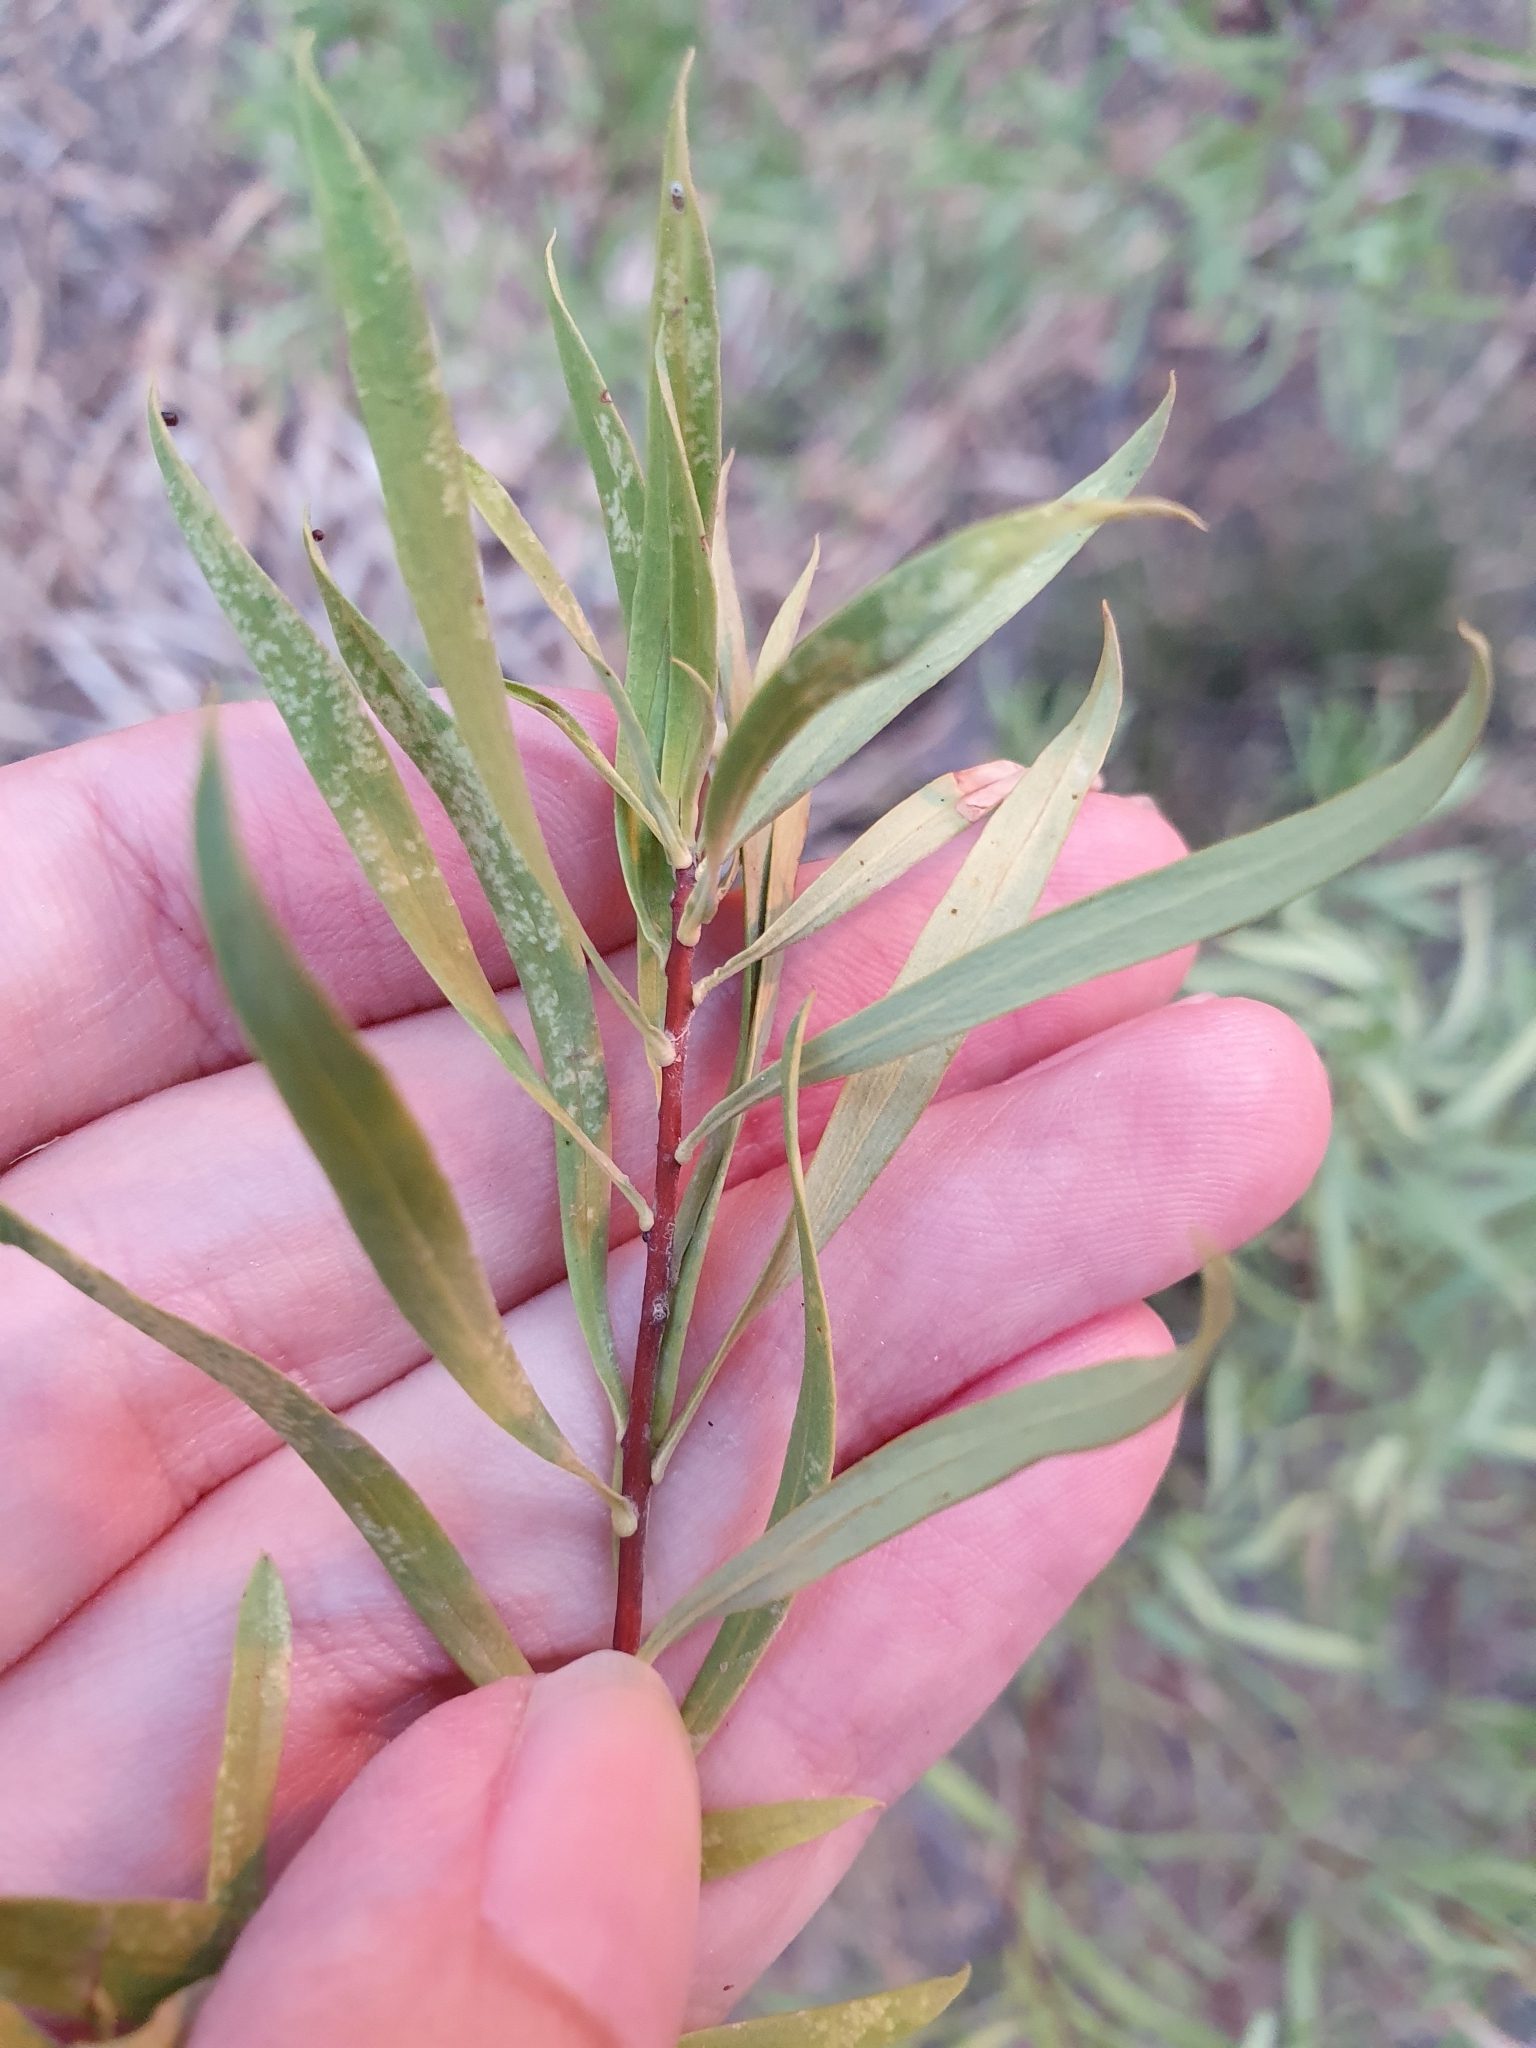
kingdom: Plantae
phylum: Tracheophyta
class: Magnoliopsida
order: Malvales
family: Thymelaeaceae
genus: Daphne
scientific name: Daphne gnidium
